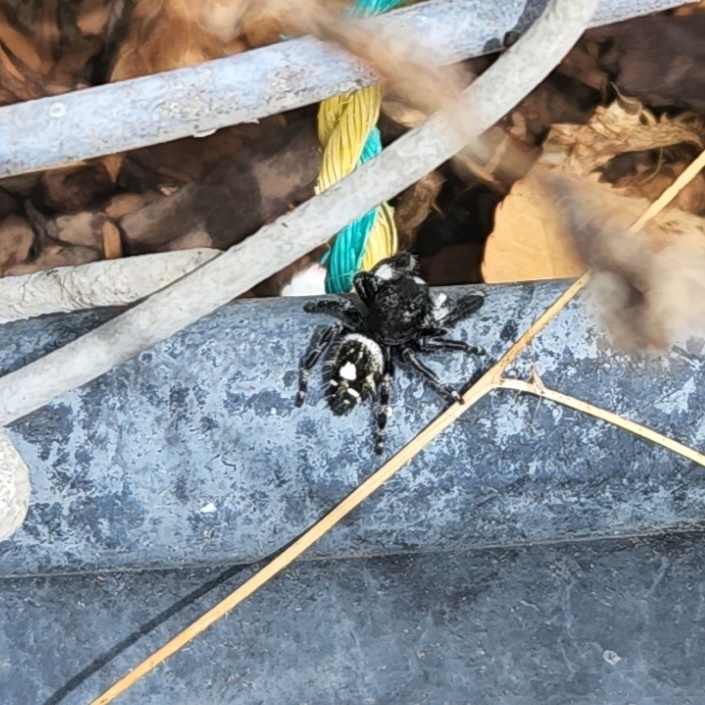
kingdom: Animalia
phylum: Arthropoda
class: Arachnida
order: Araneae
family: Salticidae
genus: Phidippus
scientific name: Phidippus audax
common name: Bold jumper
